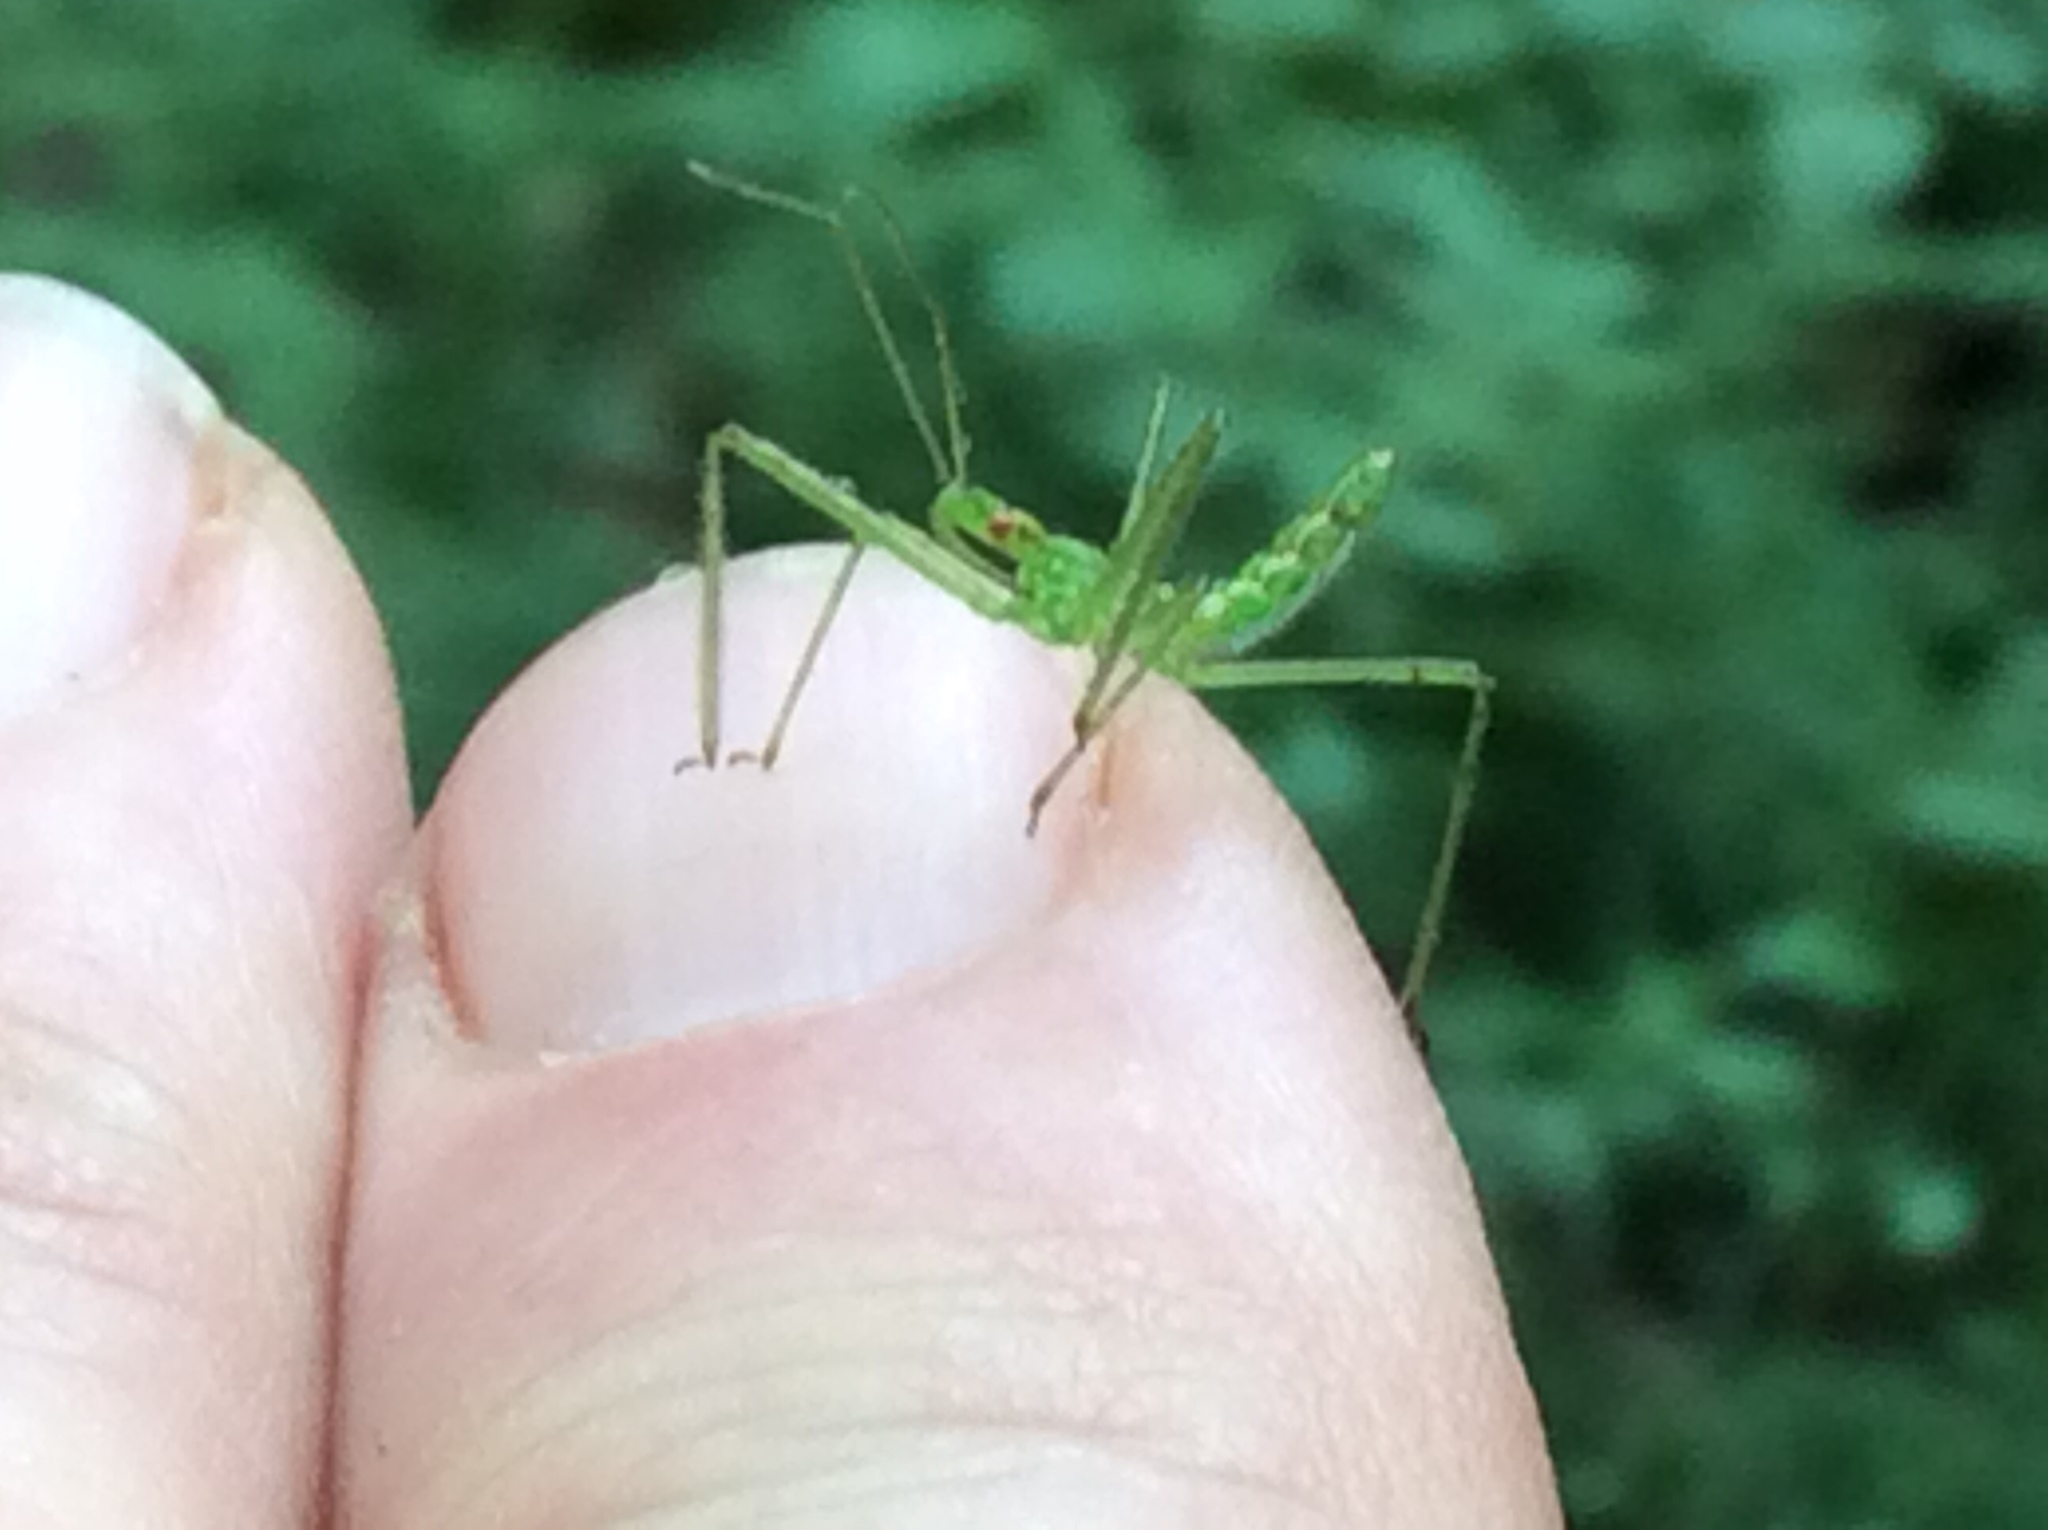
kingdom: Animalia
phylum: Arthropoda
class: Insecta
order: Hemiptera
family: Reduviidae
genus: Zelus
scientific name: Zelus luridus
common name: Pale green assassin bug
